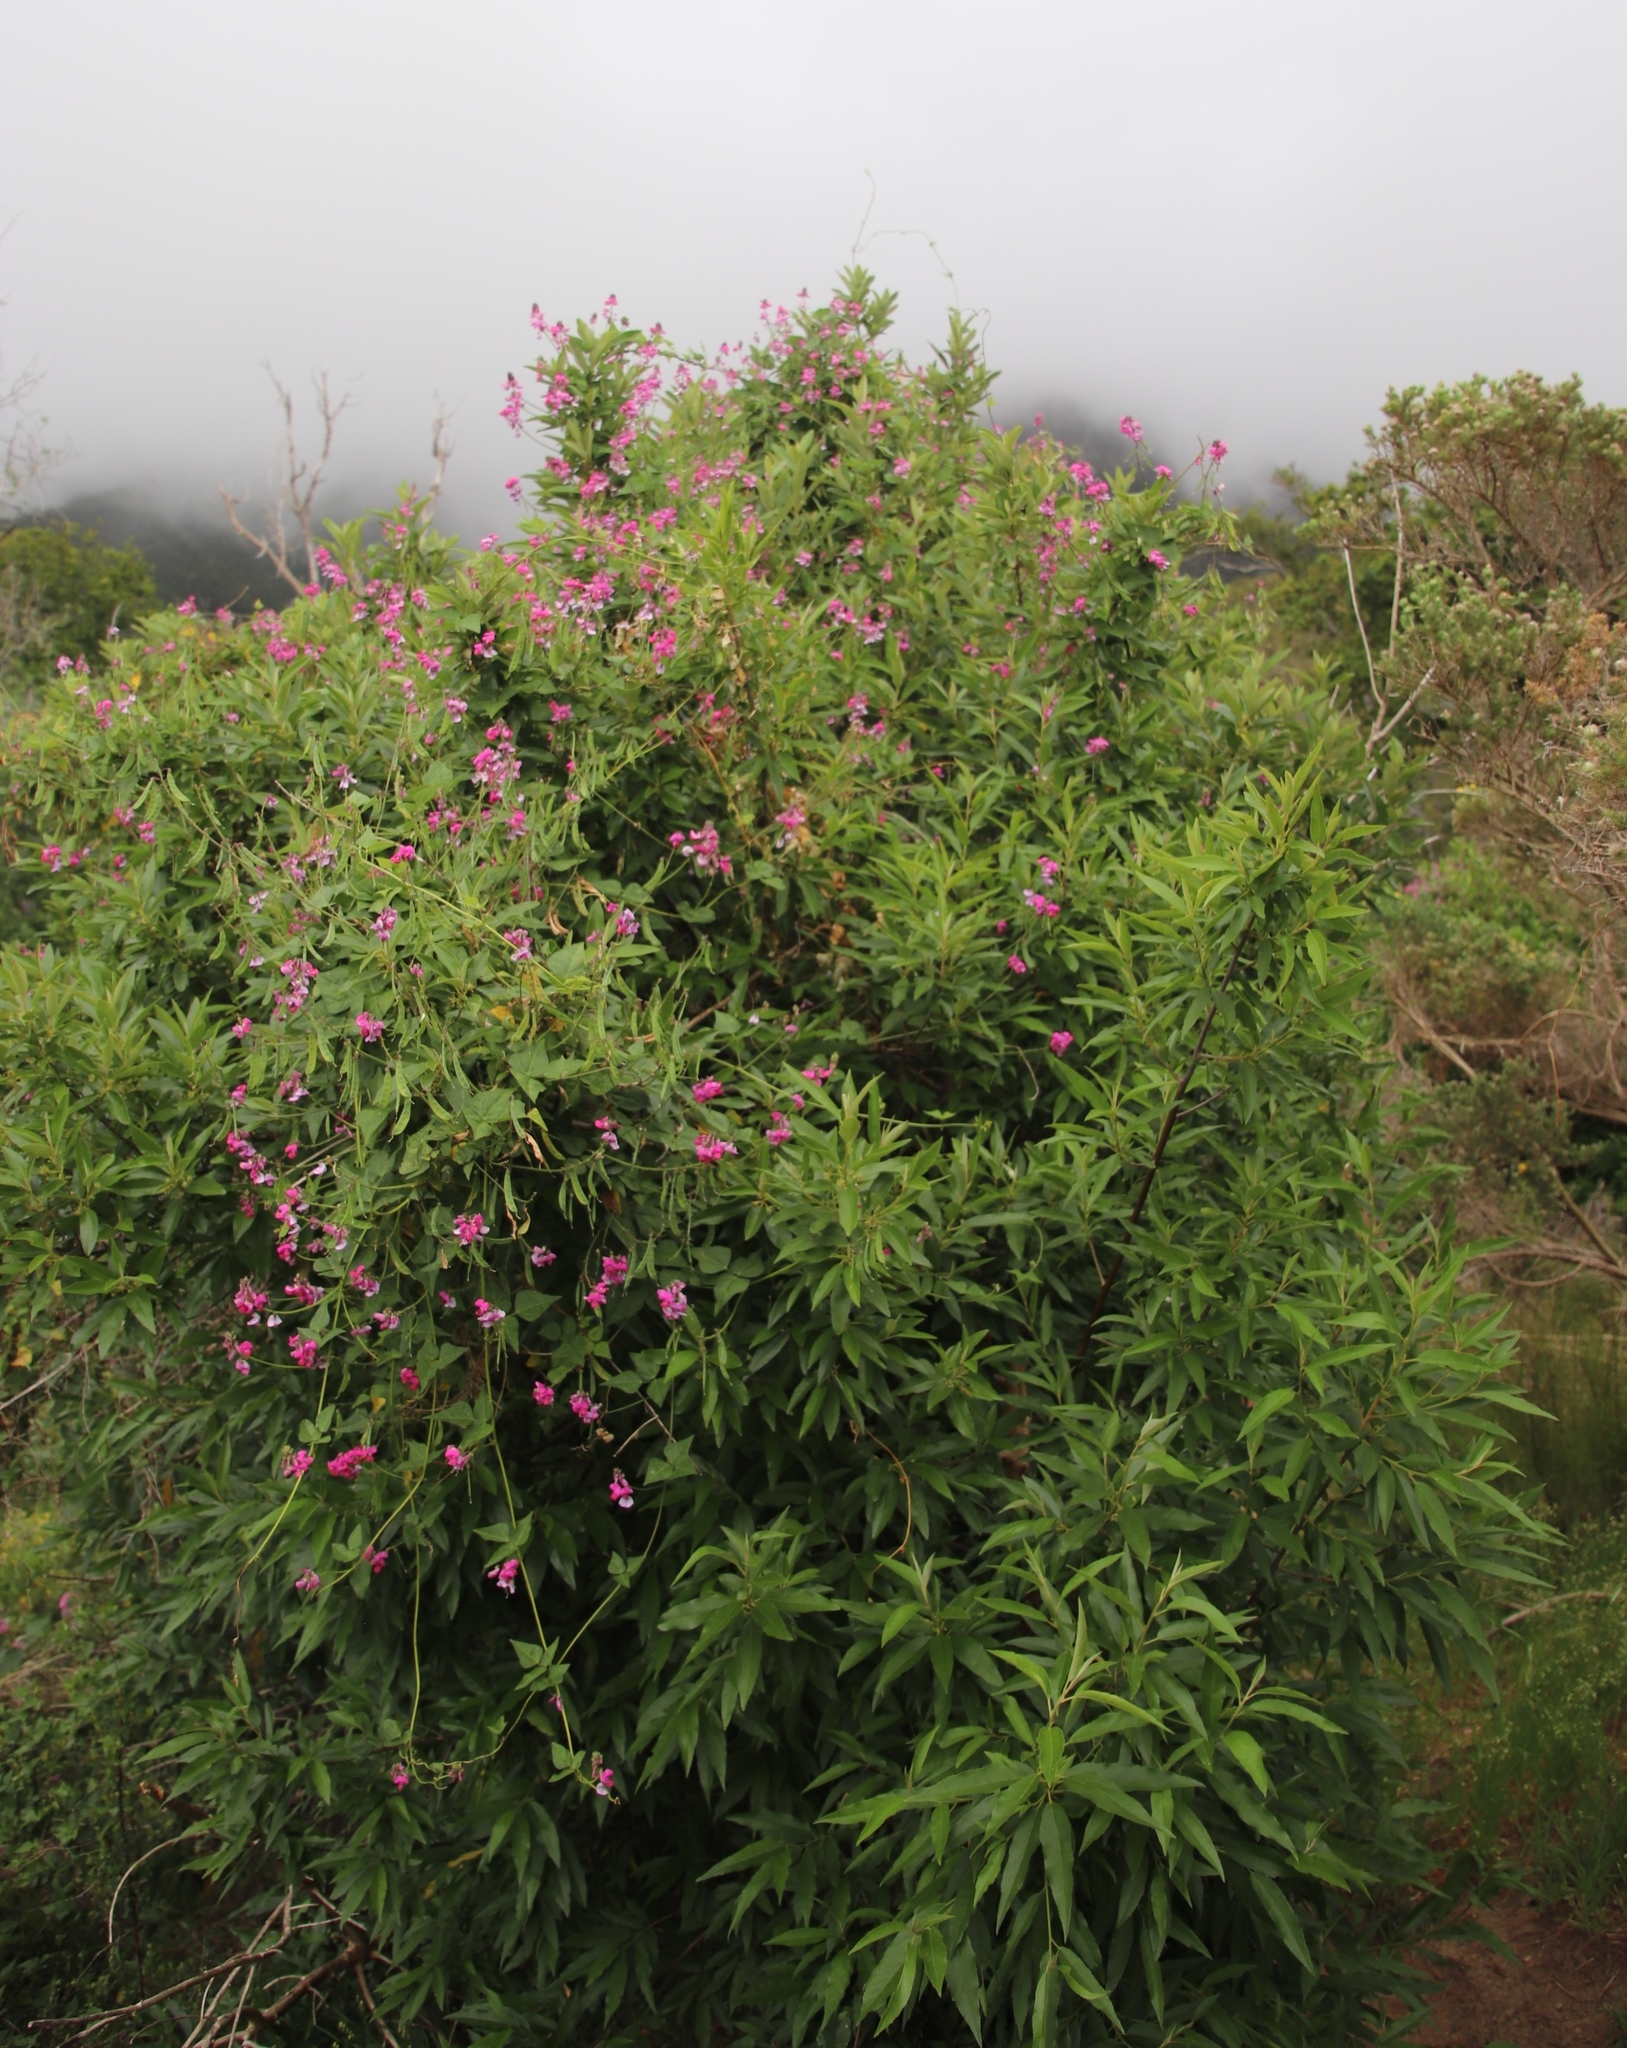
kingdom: Plantae
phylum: Tracheophyta
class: Magnoliopsida
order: Fabales
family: Fabaceae
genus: Dipogon
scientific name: Dipogon lignosus
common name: Okie bean
